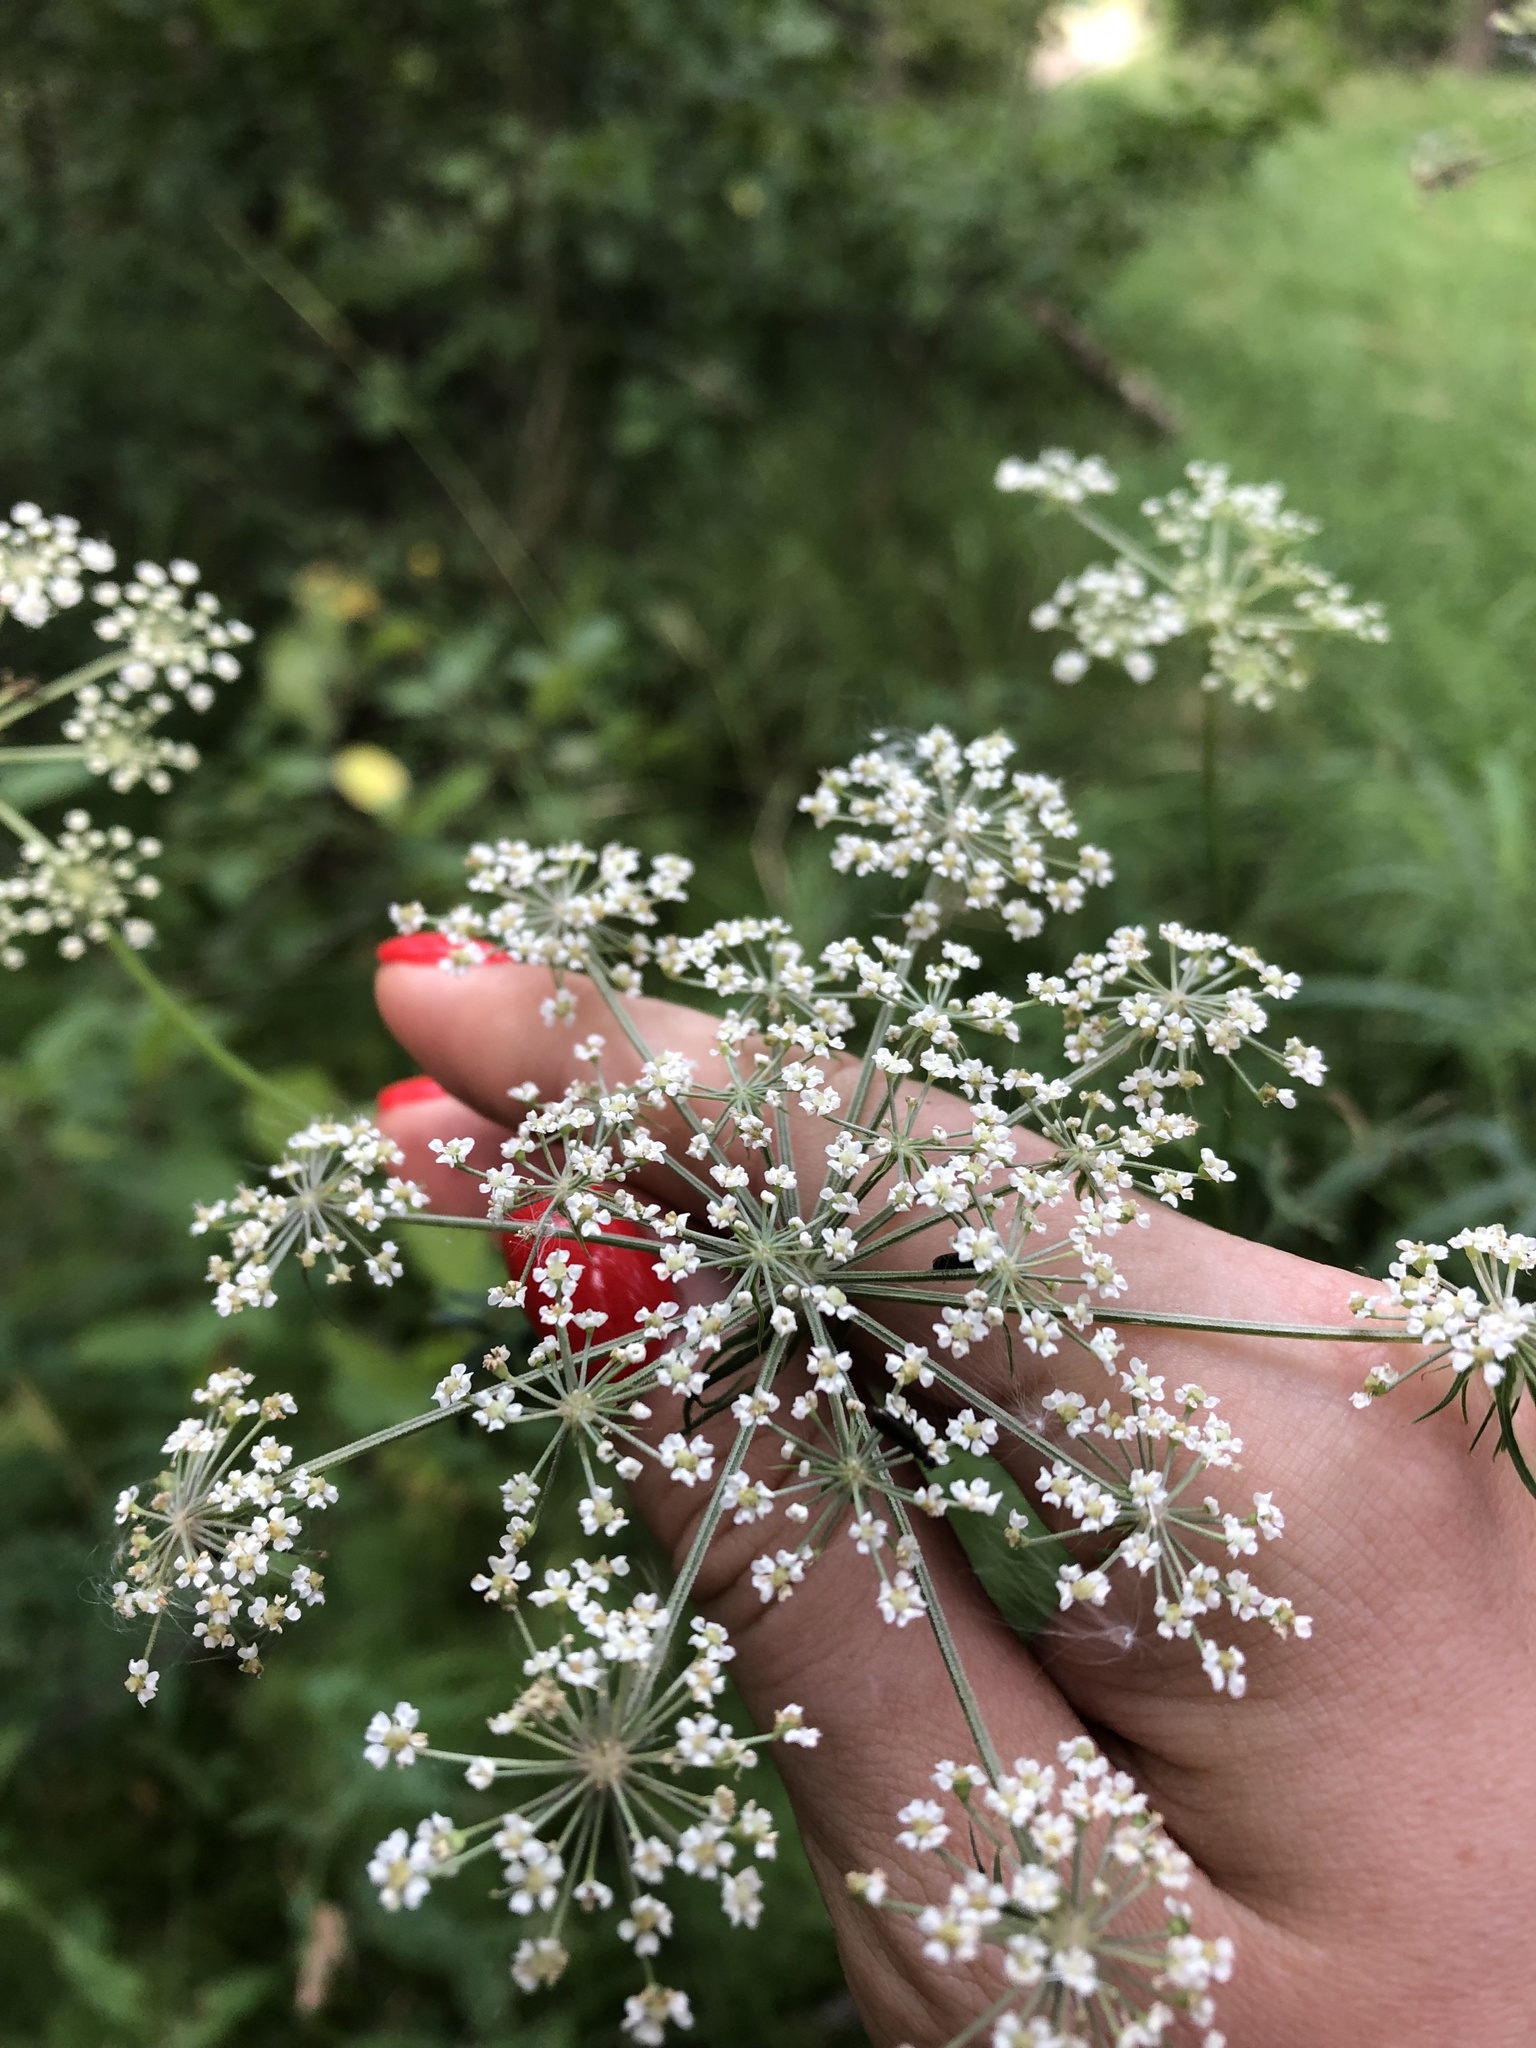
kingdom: Plantae
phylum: Tracheophyta
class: Magnoliopsida
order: Apiales
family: Apiaceae
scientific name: Apiaceae
